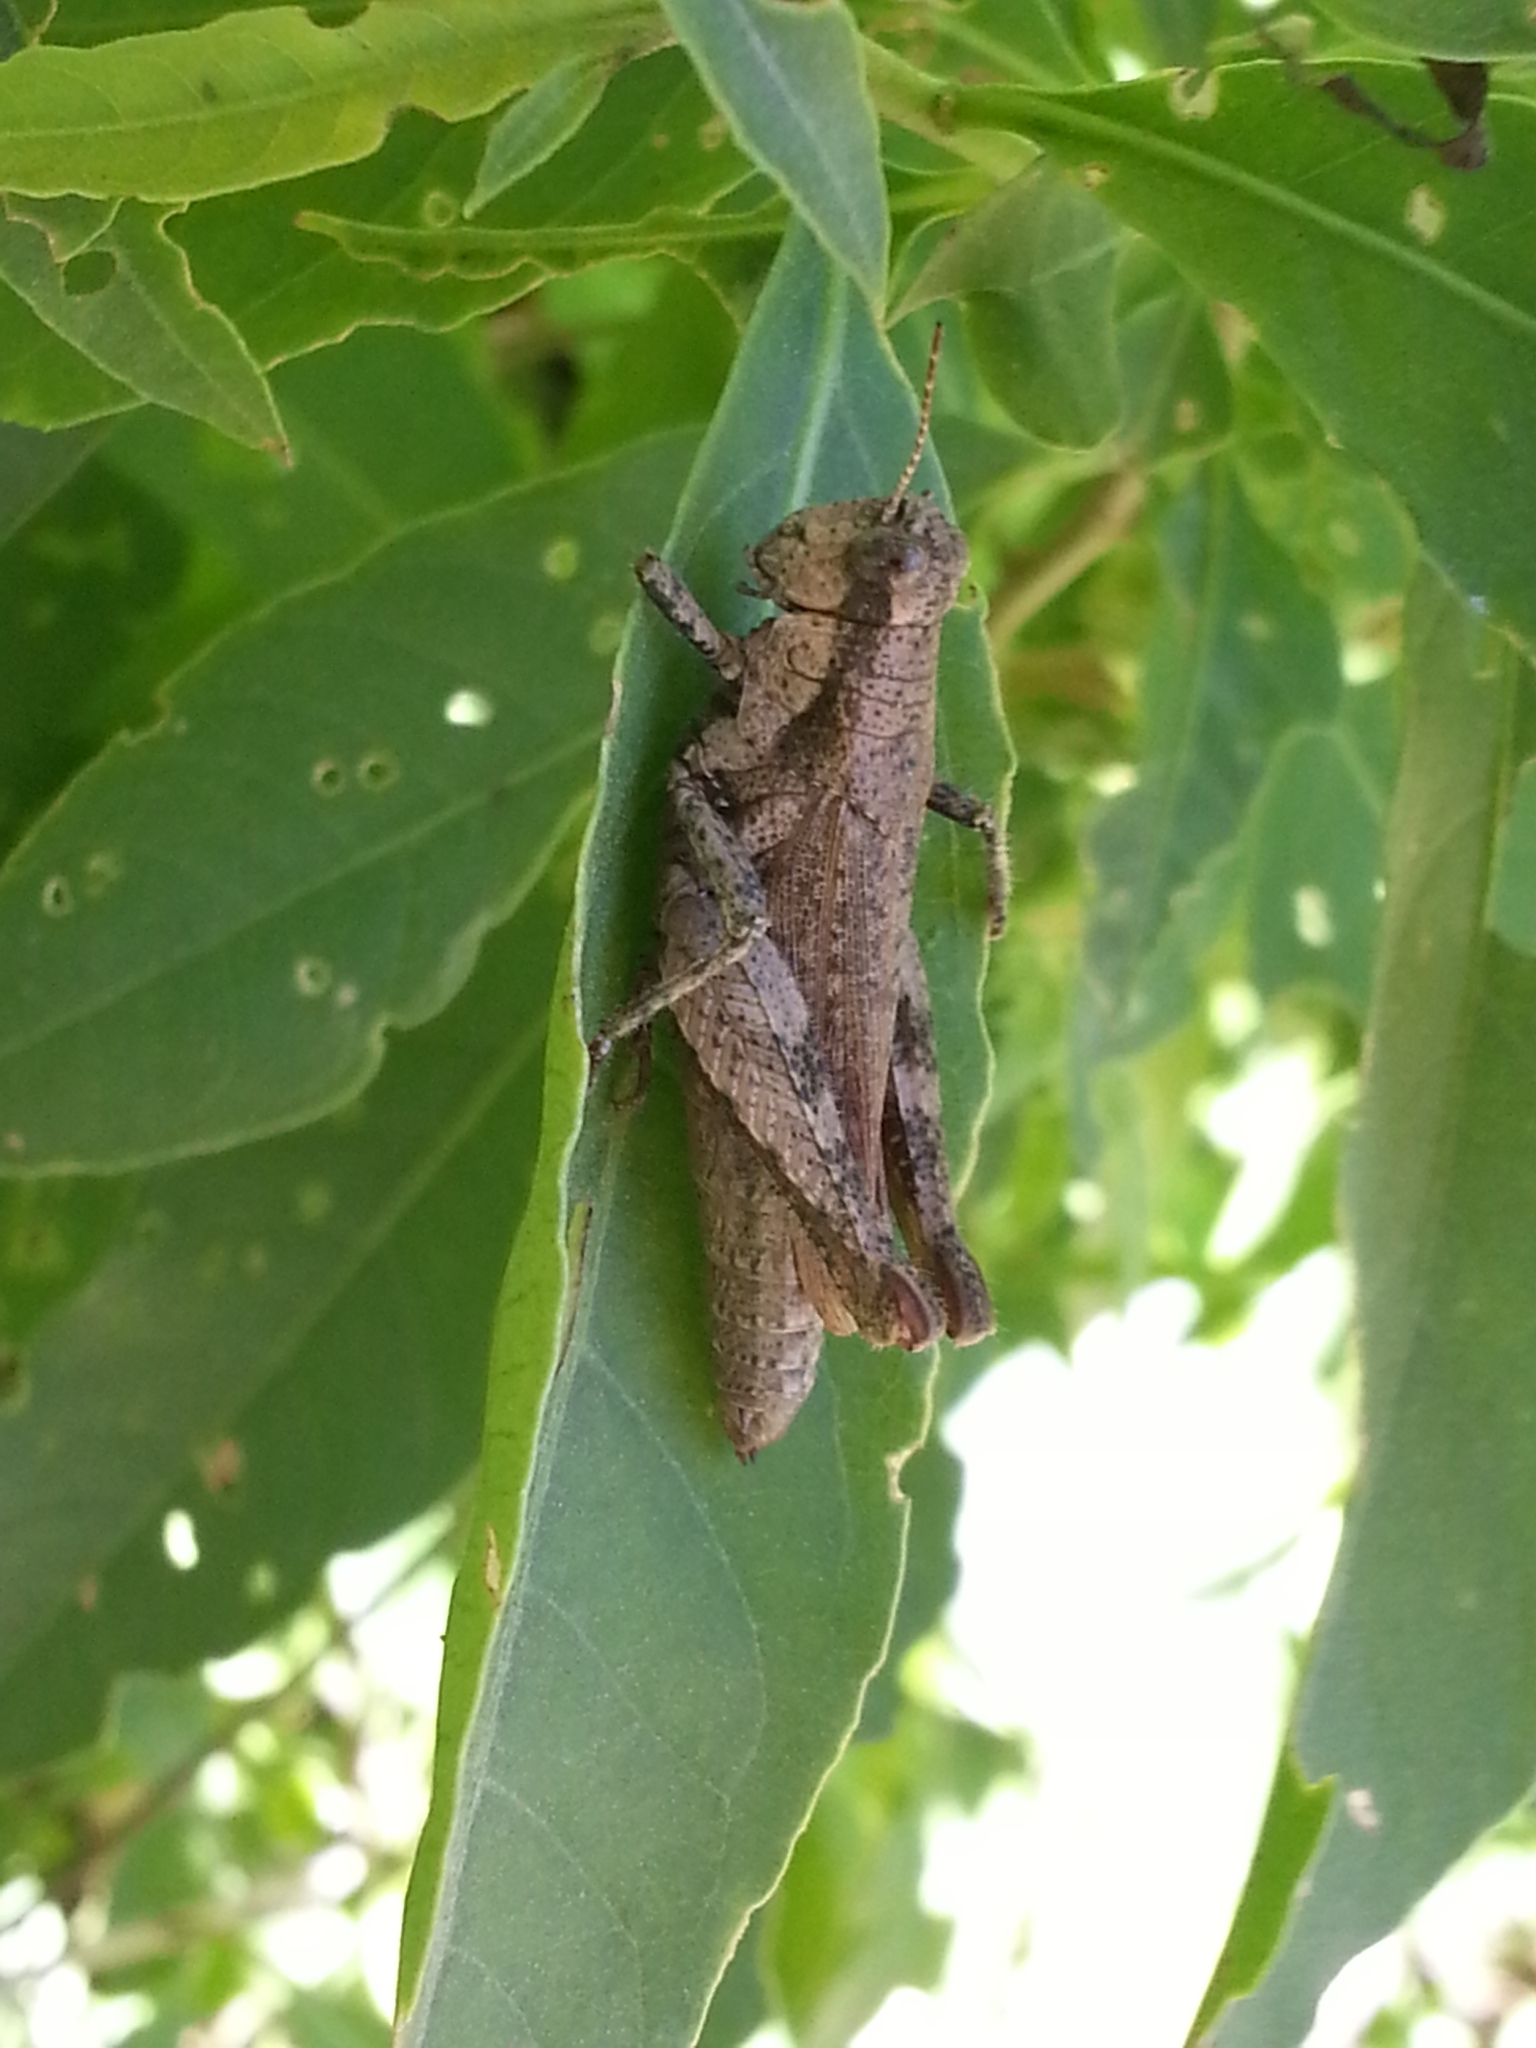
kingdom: Animalia
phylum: Arthropoda
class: Insecta
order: Orthoptera
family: Acrididae
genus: Ronderosia
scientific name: Ronderosia bergii
